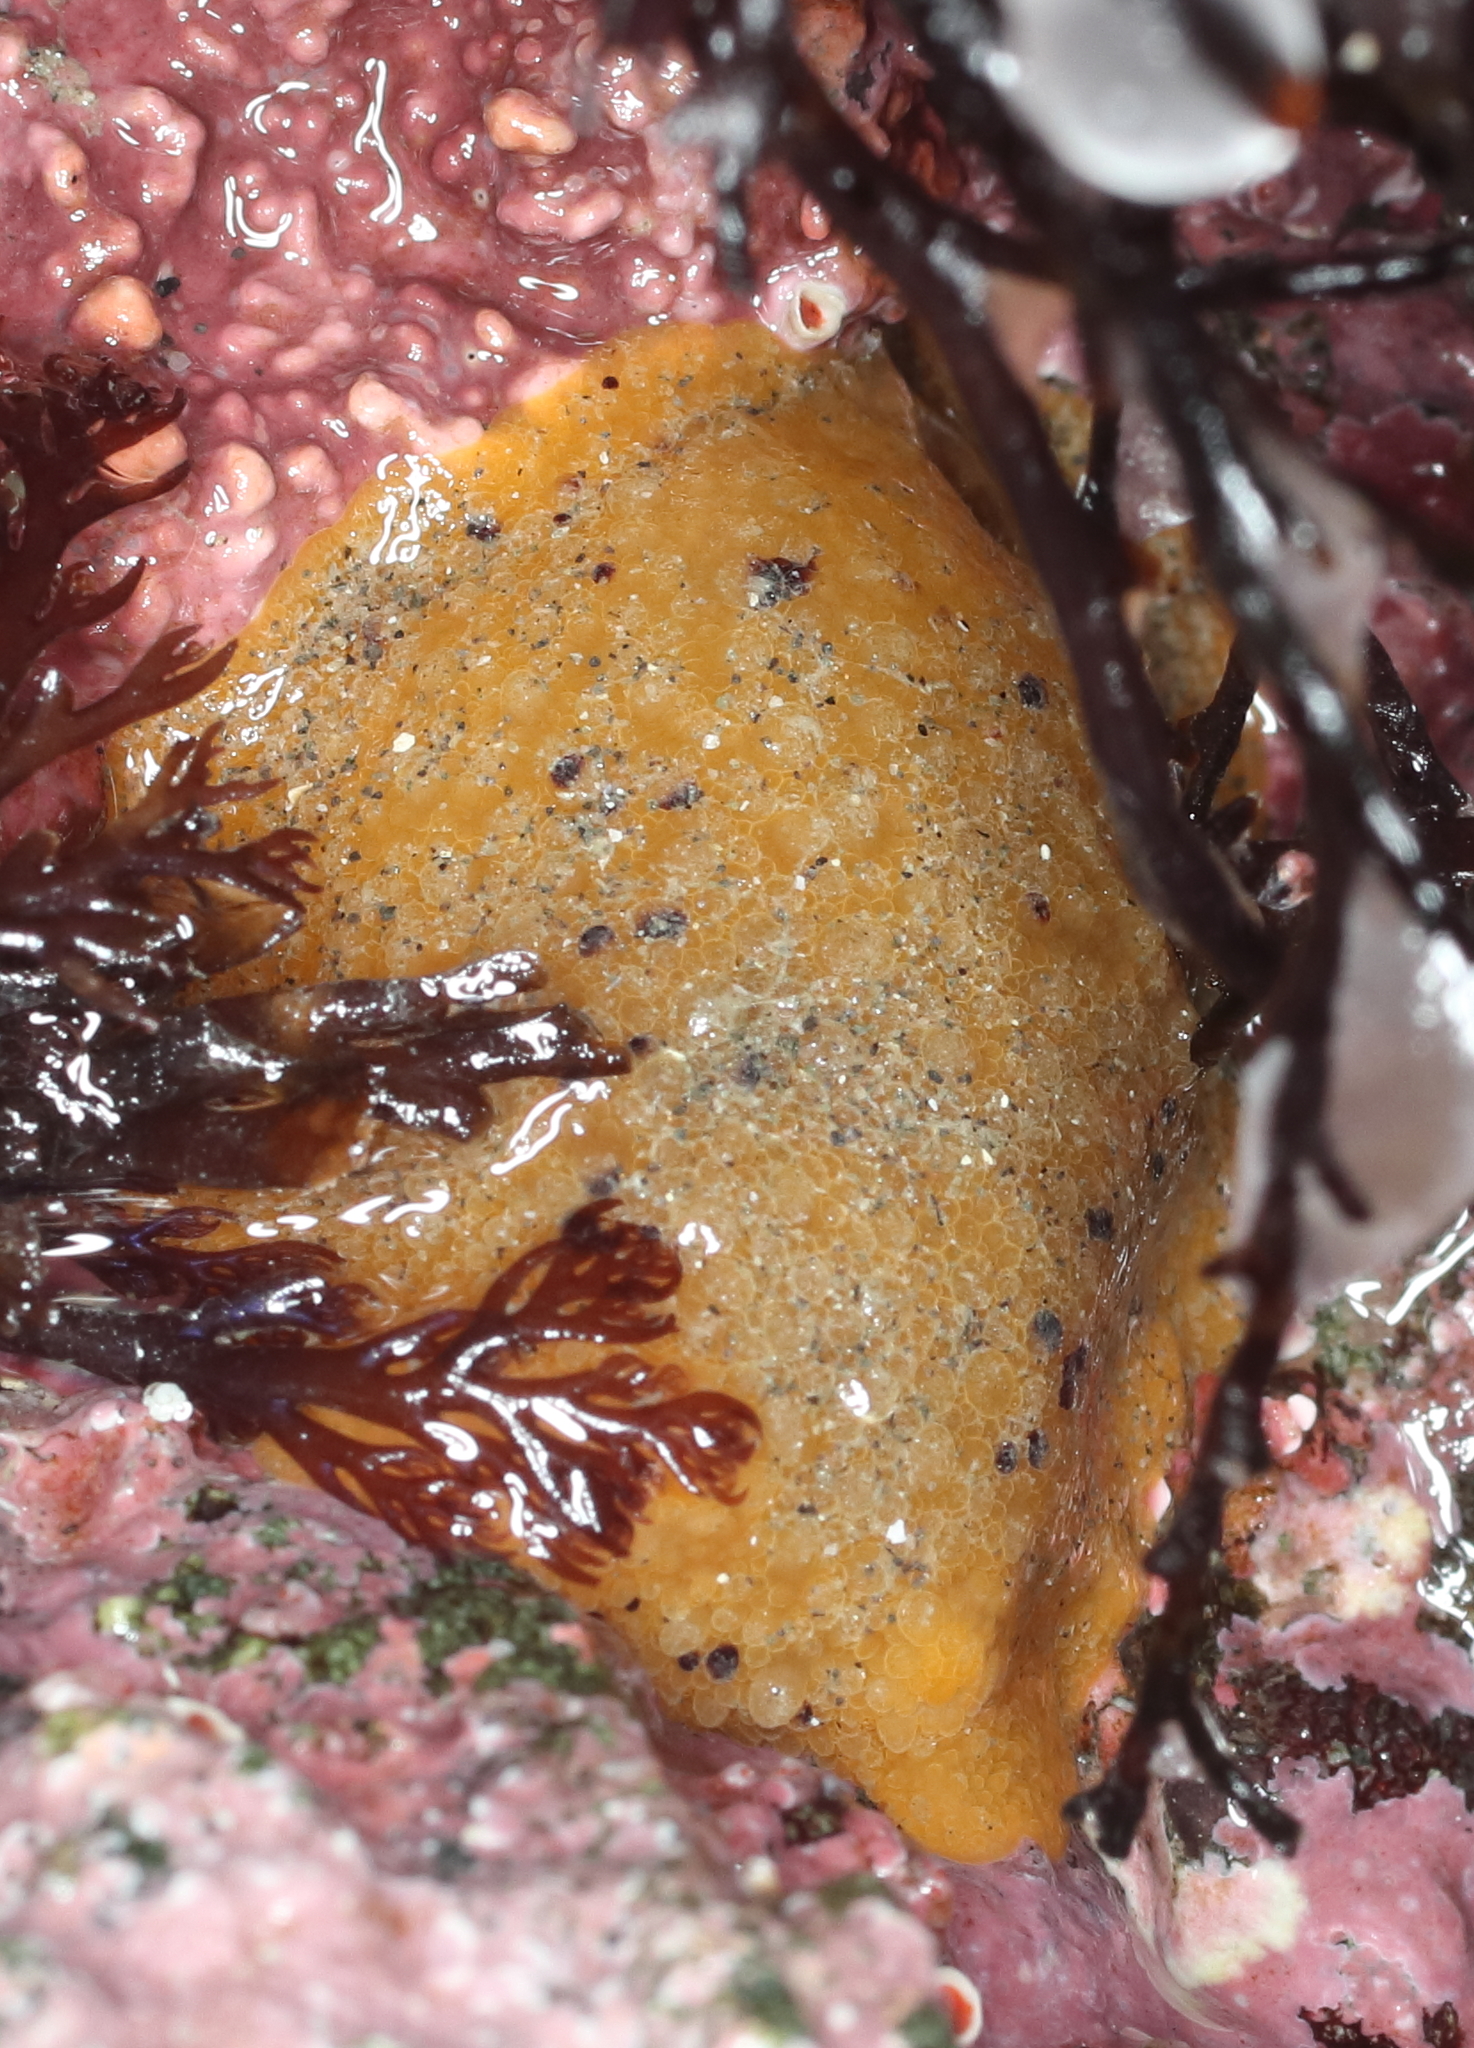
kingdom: Animalia
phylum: Mollusca
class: Gastropoda
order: Nudibranchia
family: Dorididae
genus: Doris
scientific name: Doris montereyensis
